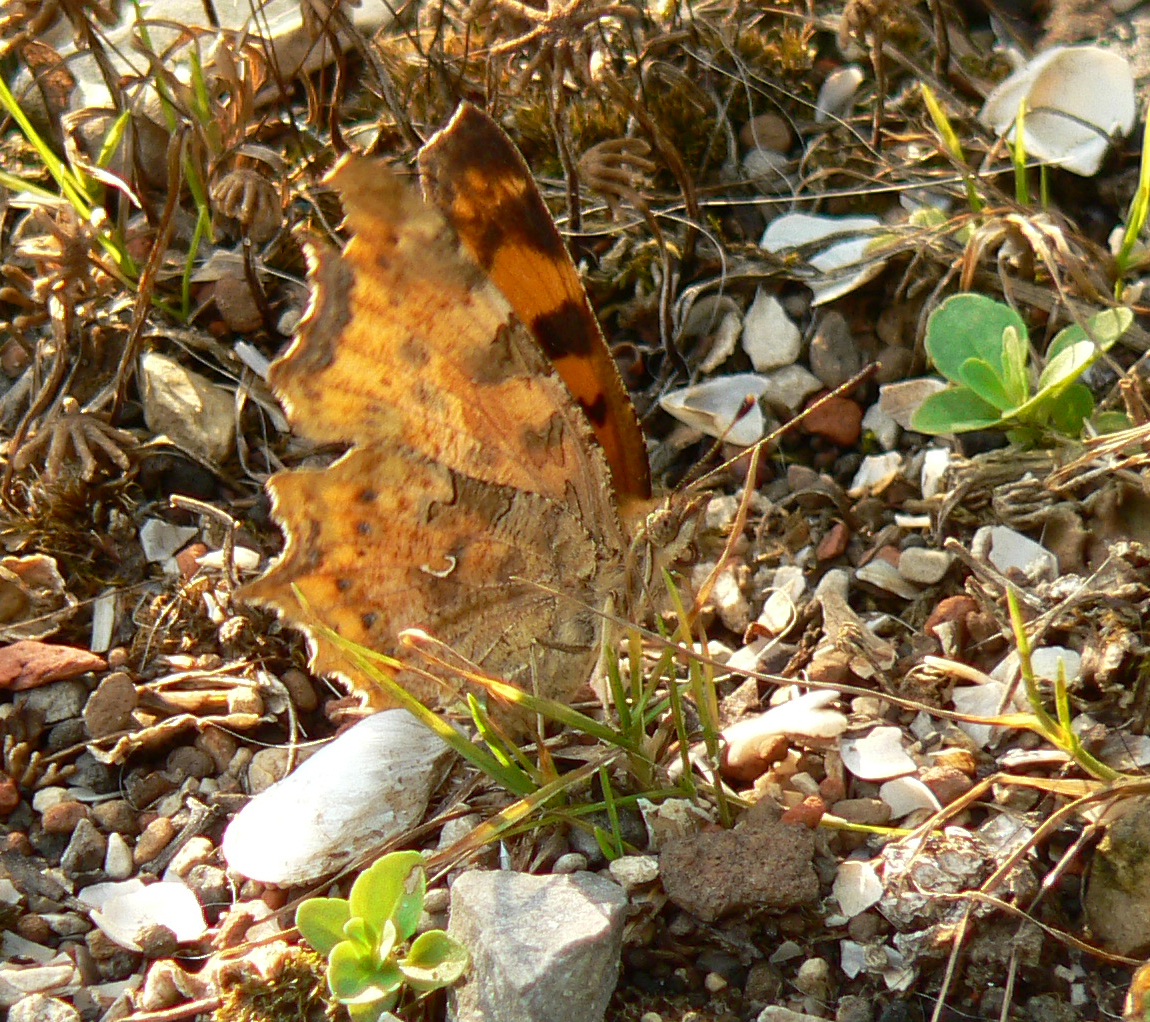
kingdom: Animalia
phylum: Arthropoda
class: Insecta
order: Lepidoptera
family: Nymphalidae
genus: Polygonia
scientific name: Polygonia c-album
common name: Comma
